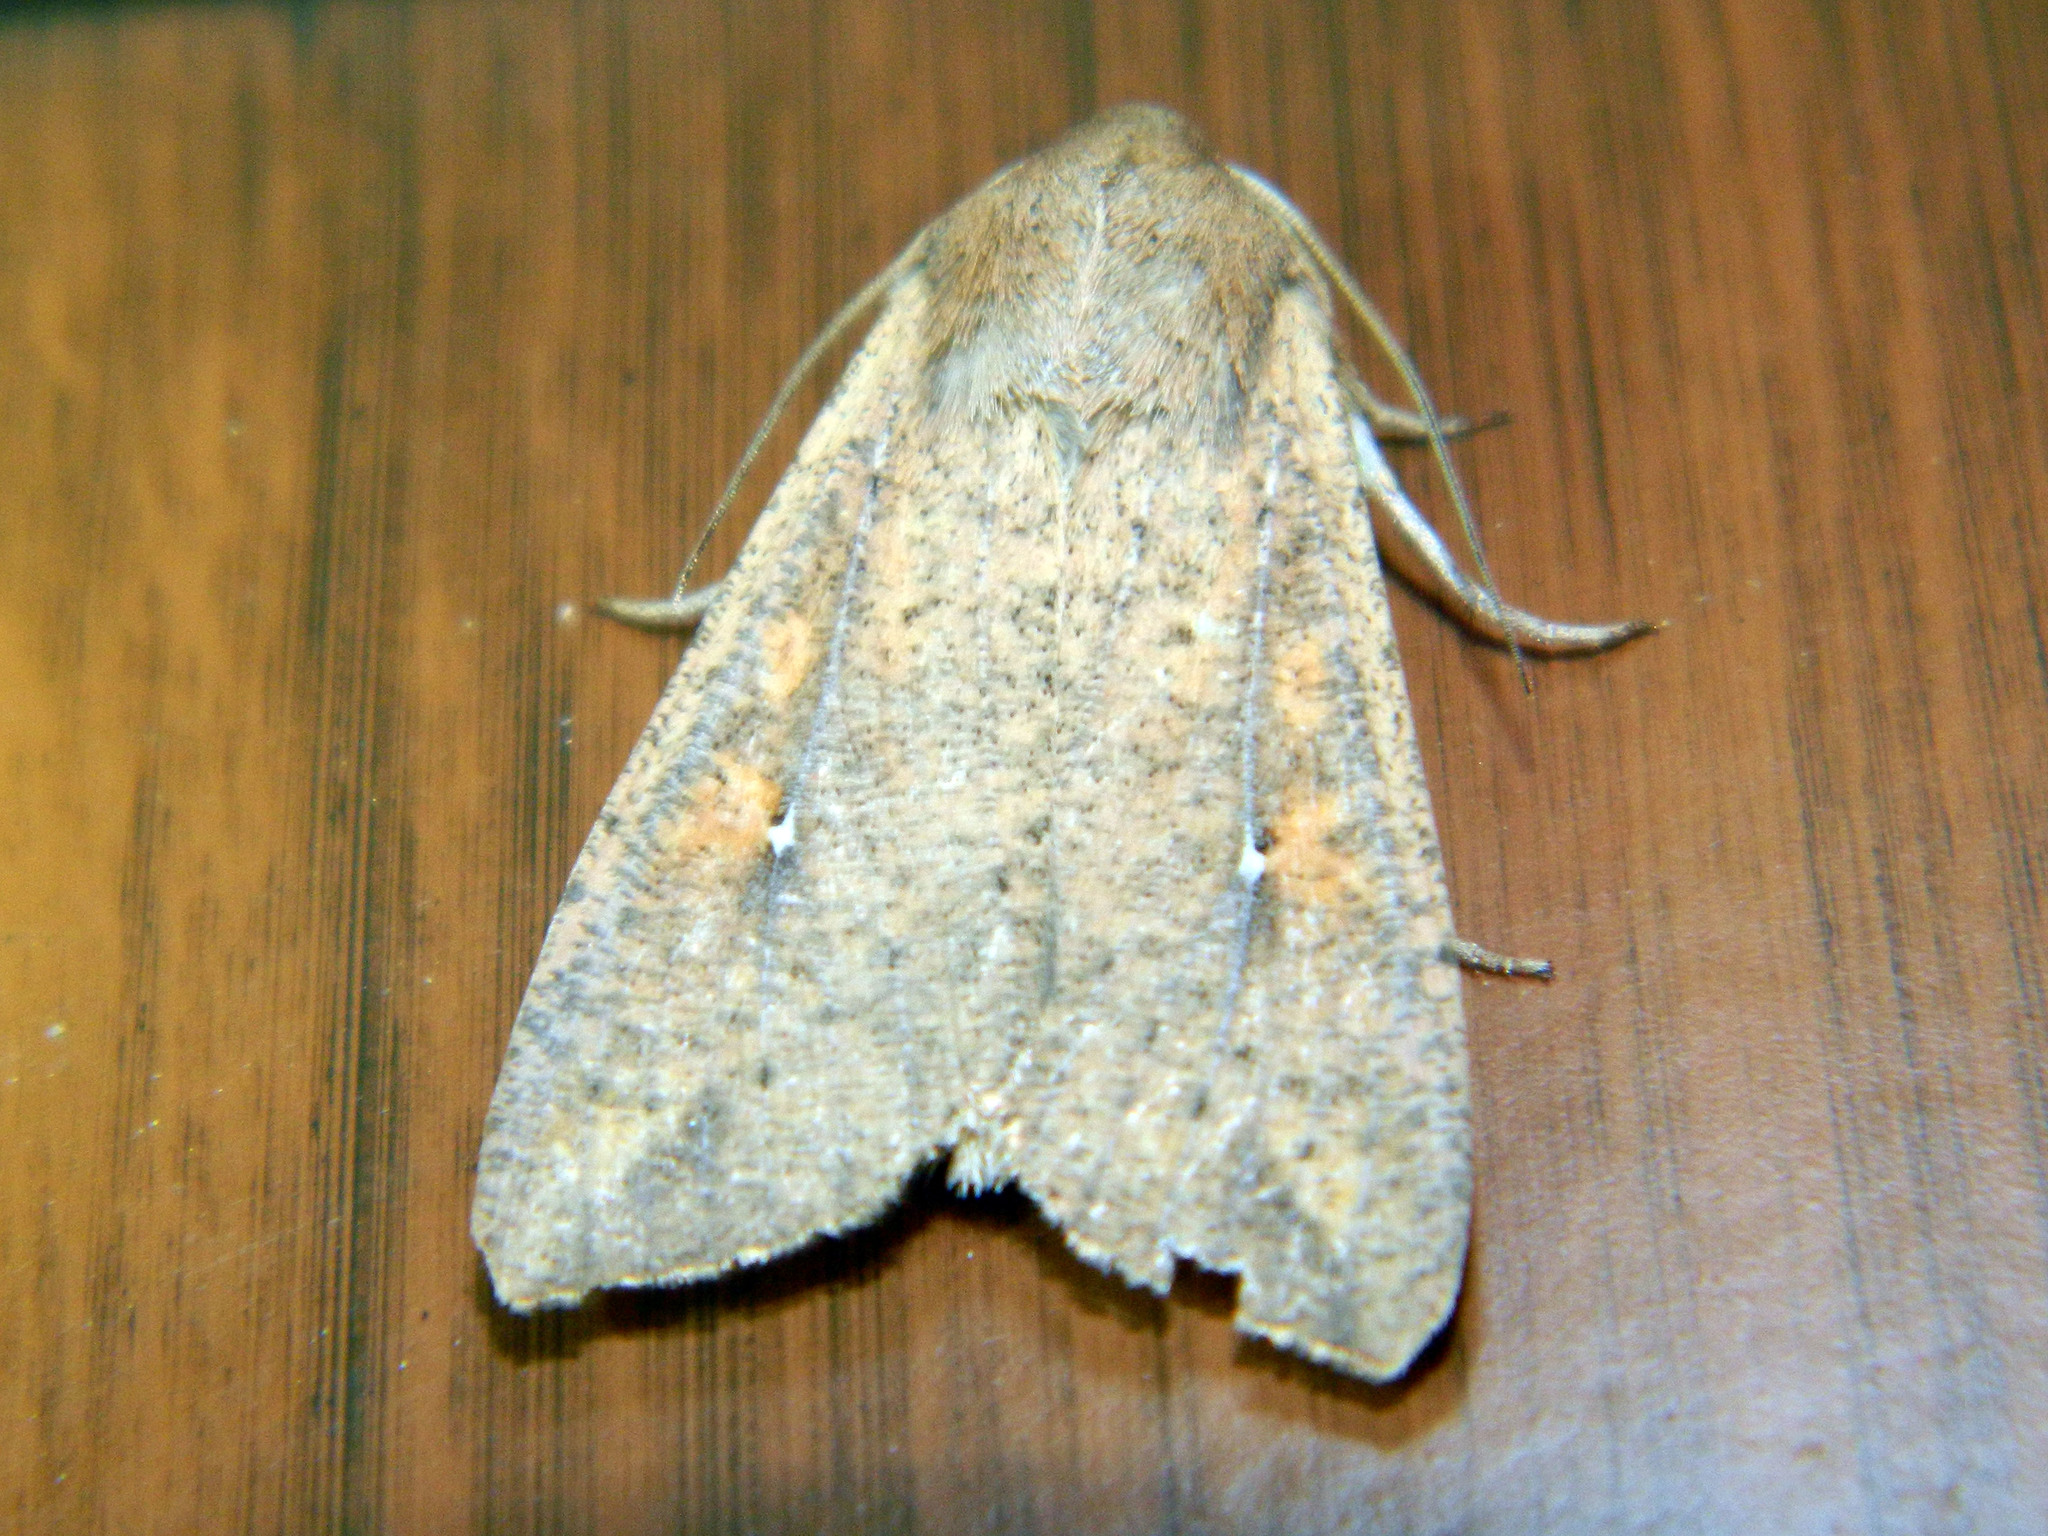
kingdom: Animalia
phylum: Arthropoda
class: Insecta
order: Lepidoptera
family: Noctuidae
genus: Mythimna
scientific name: Mythimna unipuncta
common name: White-speck
